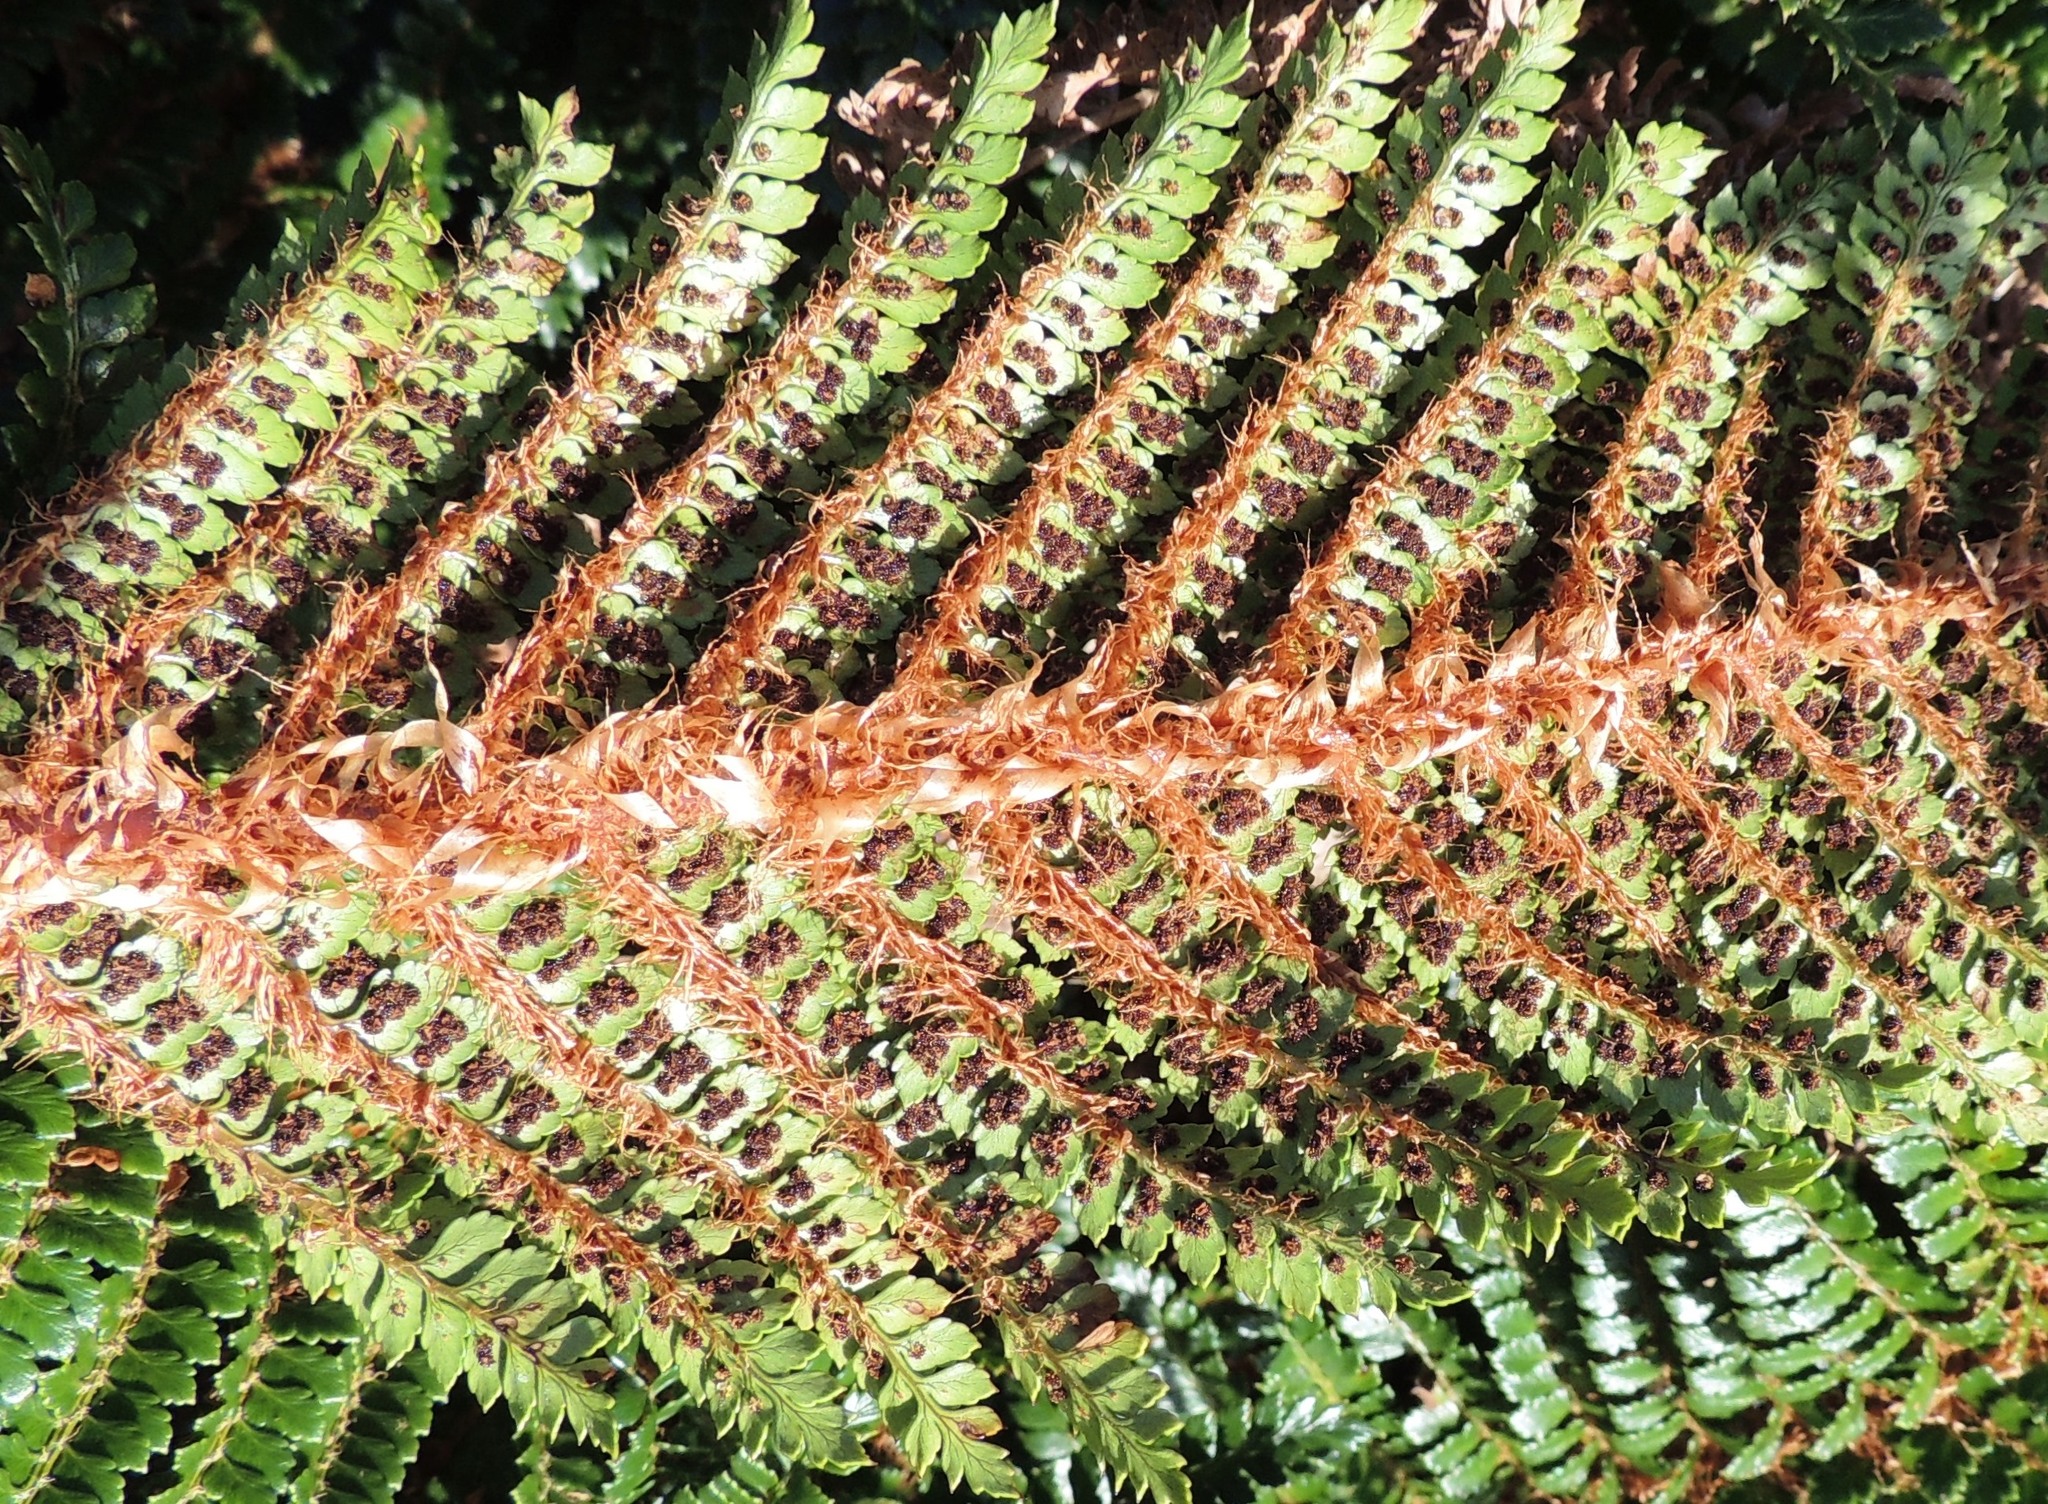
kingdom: Plantae
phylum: Tracheophyta
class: Polypodiopsida
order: Polypodiales
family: Dryopteridaceae
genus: Polystichum
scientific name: Polystichum vestitum
